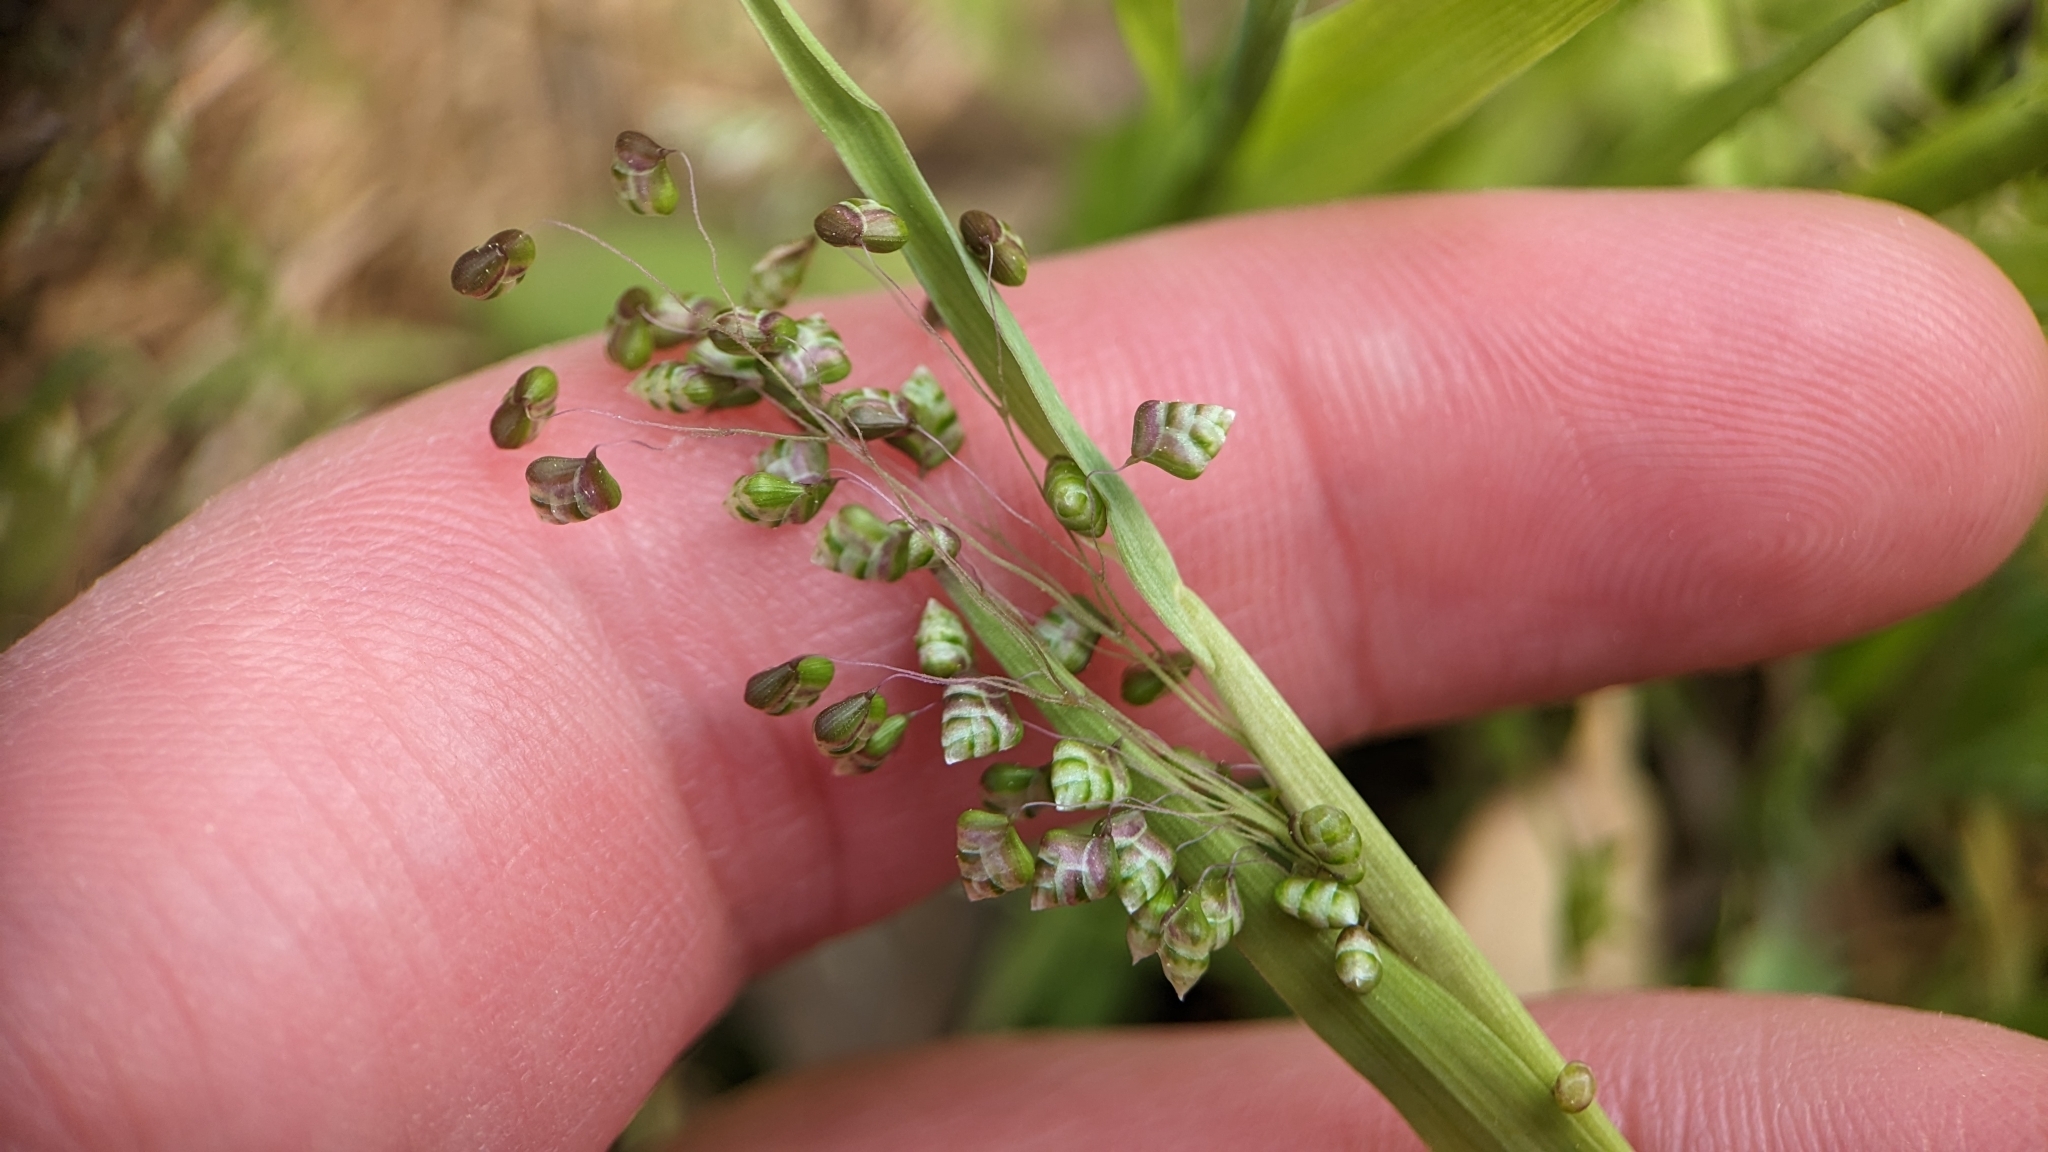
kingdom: Plantae
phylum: Tracheophyta
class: Liliopsida
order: Poales
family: Poaceae
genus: Briza
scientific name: Briza minor
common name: Lesser quaking-grass
